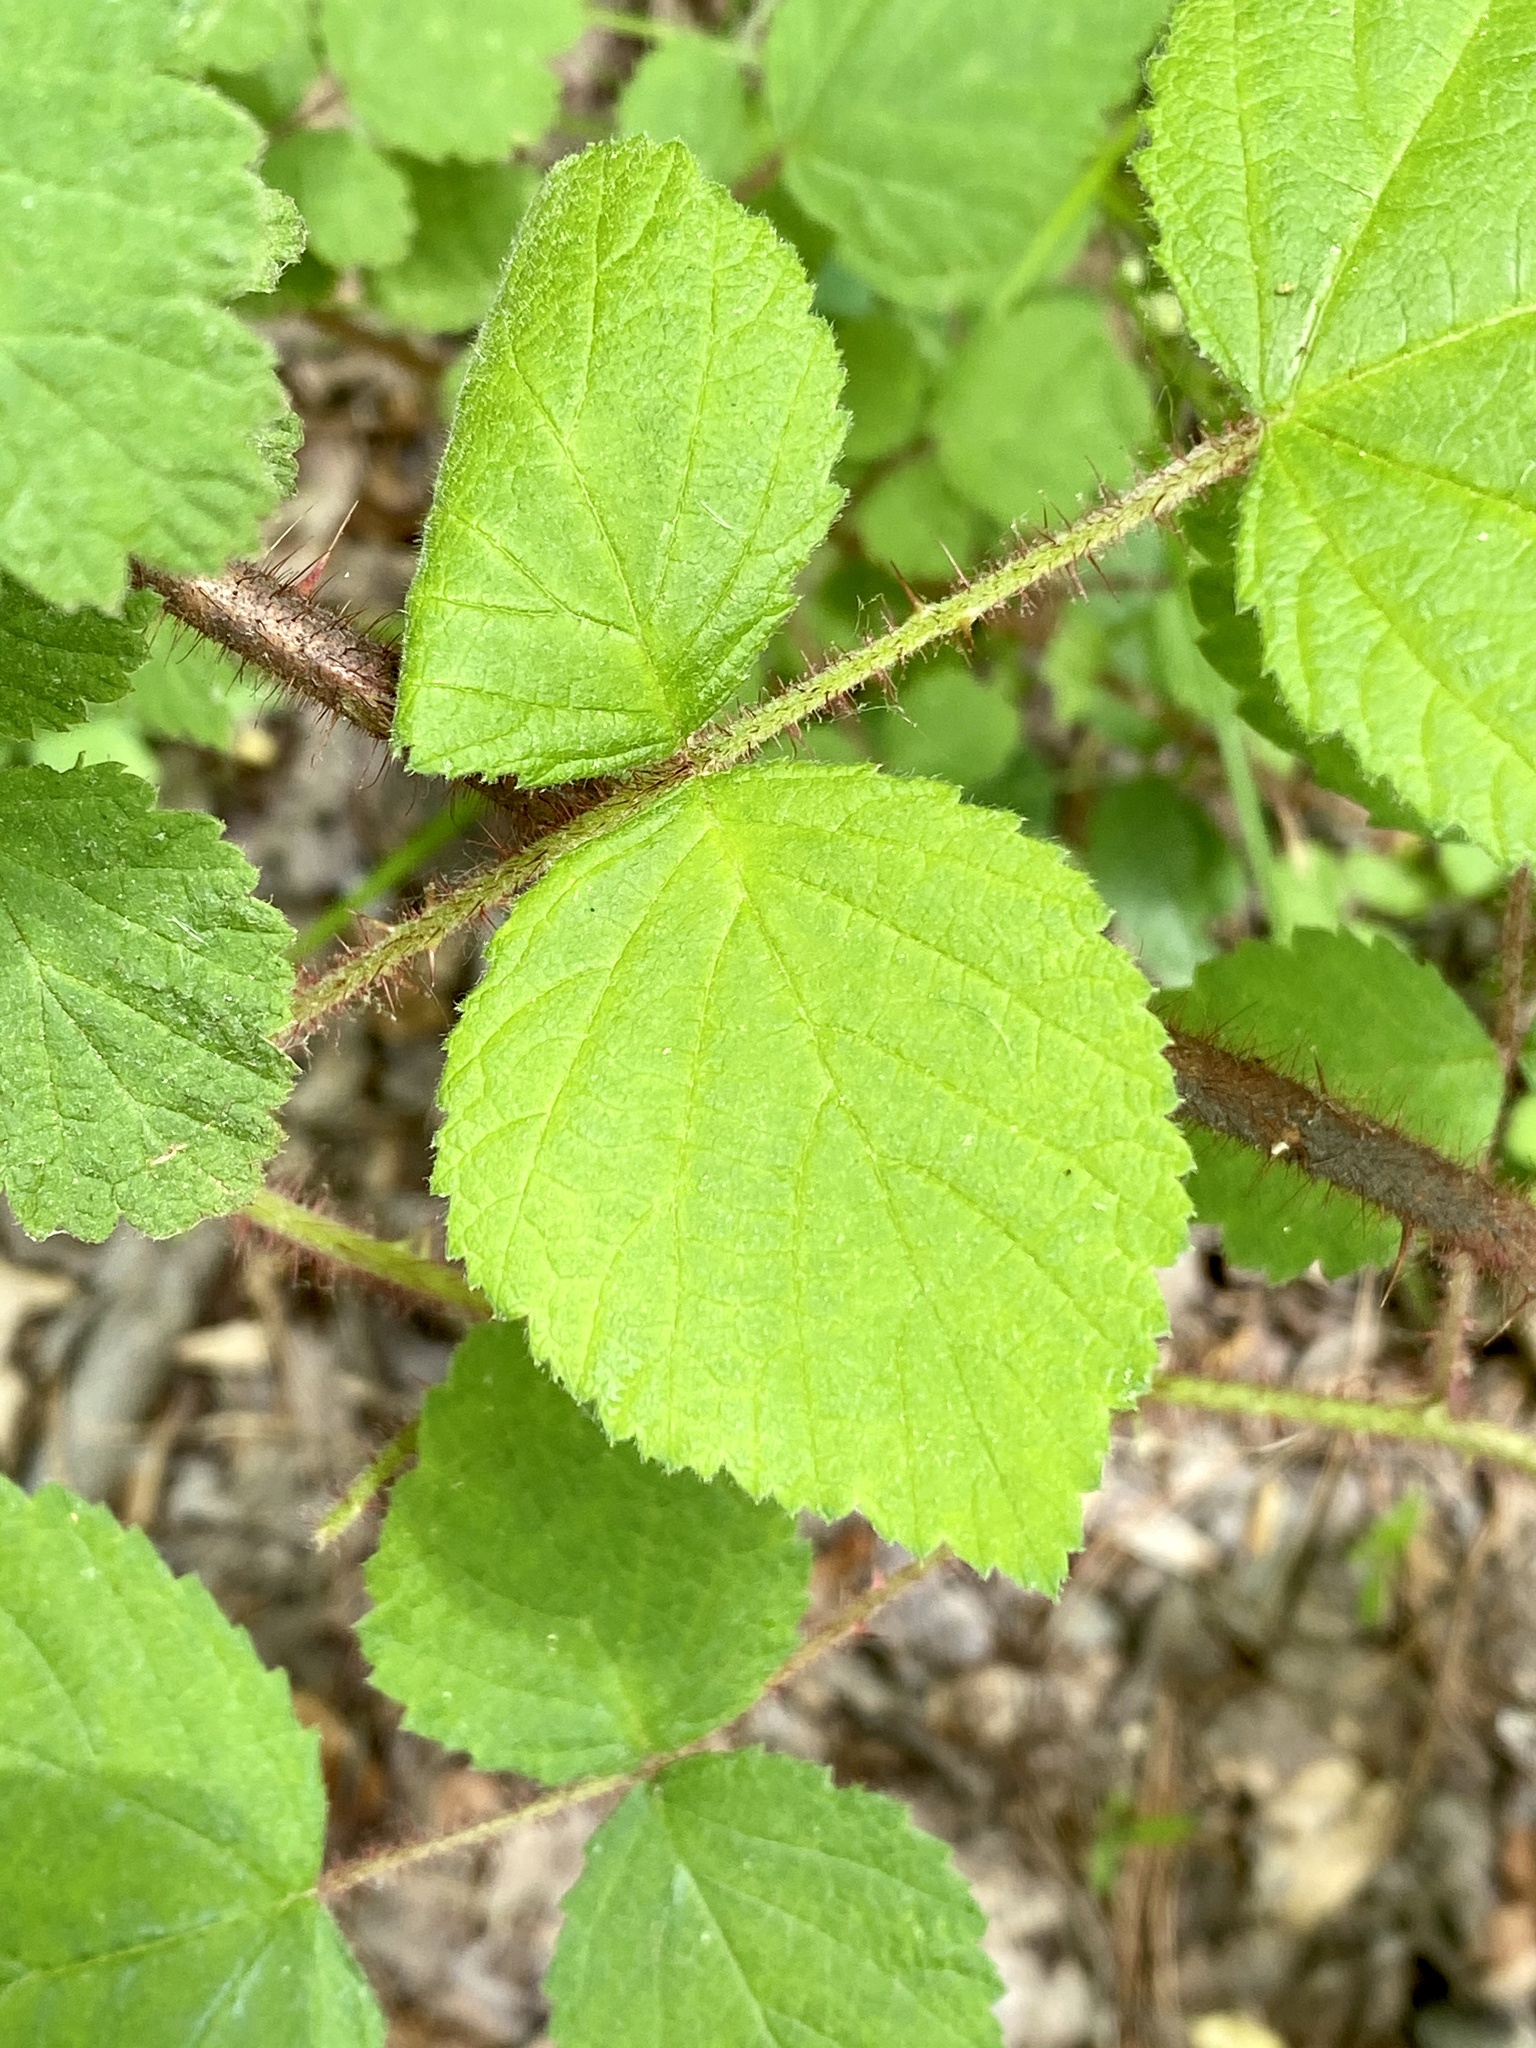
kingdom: Plantae
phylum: Tracheophyta
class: Magnoliopsida
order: Rosales
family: Rosaceae
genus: Rubus
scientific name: Rubus phoenicolasius
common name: Japanese wineberry
